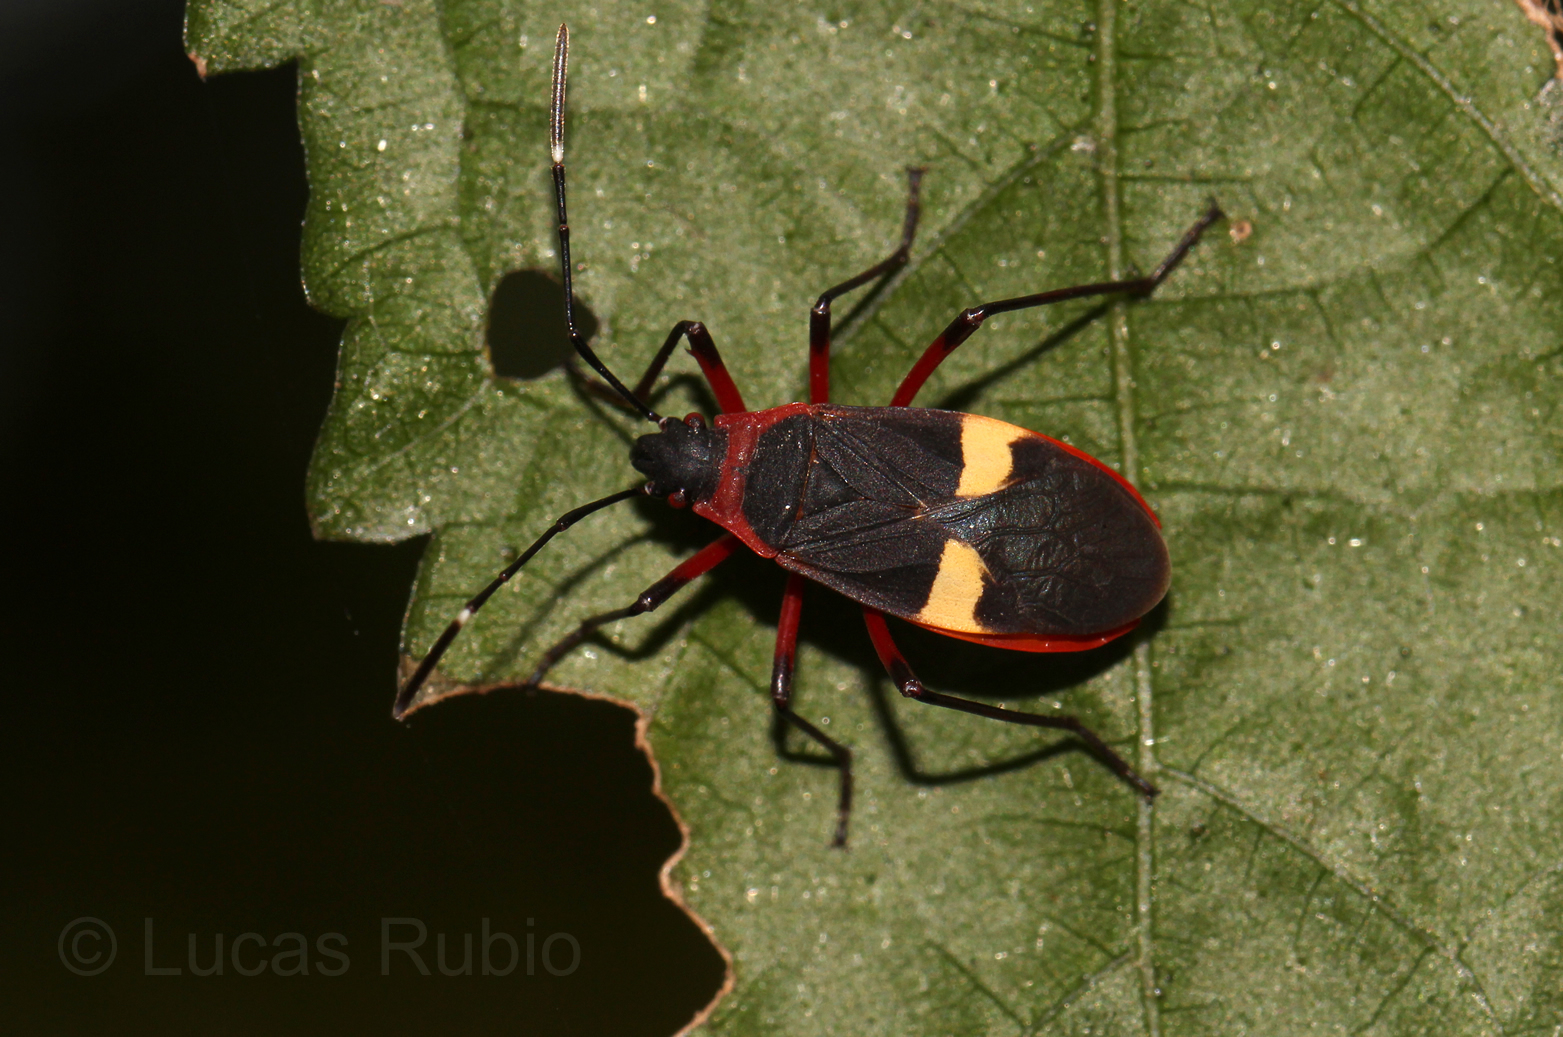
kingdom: Animalia
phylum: Arthropoda
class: Insecta
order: Hemiptera
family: Pyrrhocoridae
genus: Dysdercus
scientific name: Dysdercus albofasciatus
